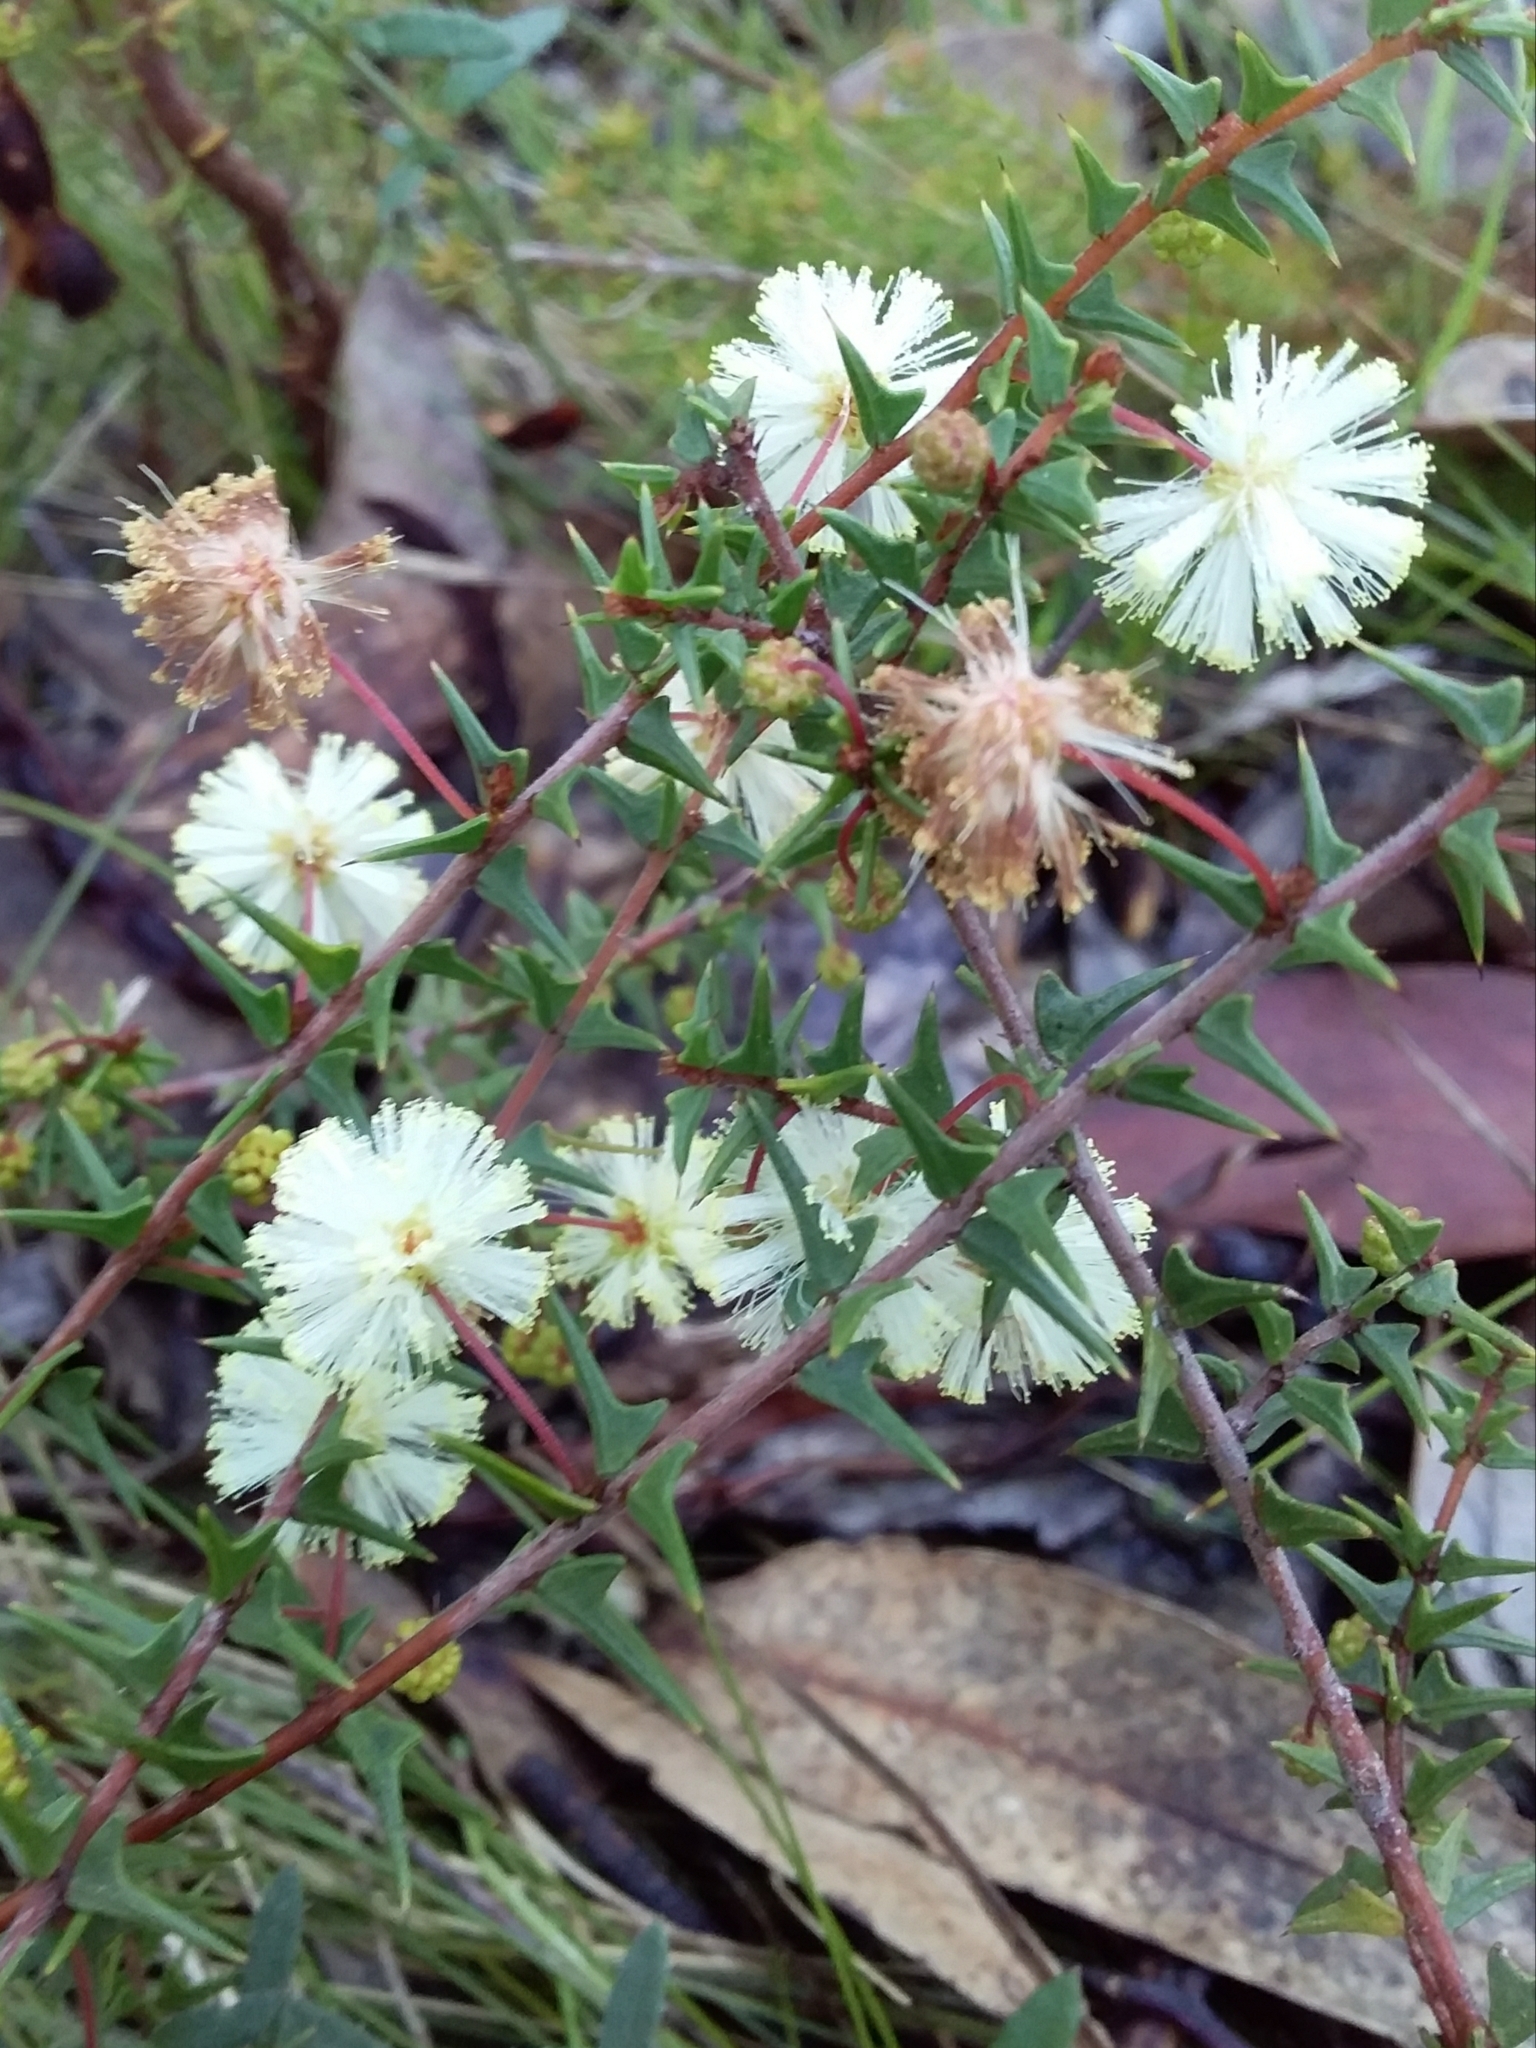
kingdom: Plantae
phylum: Tracheophyta
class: Magnoliopsida
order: Fabales
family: Fabaceae
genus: Acacia
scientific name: Acacia gunnii
